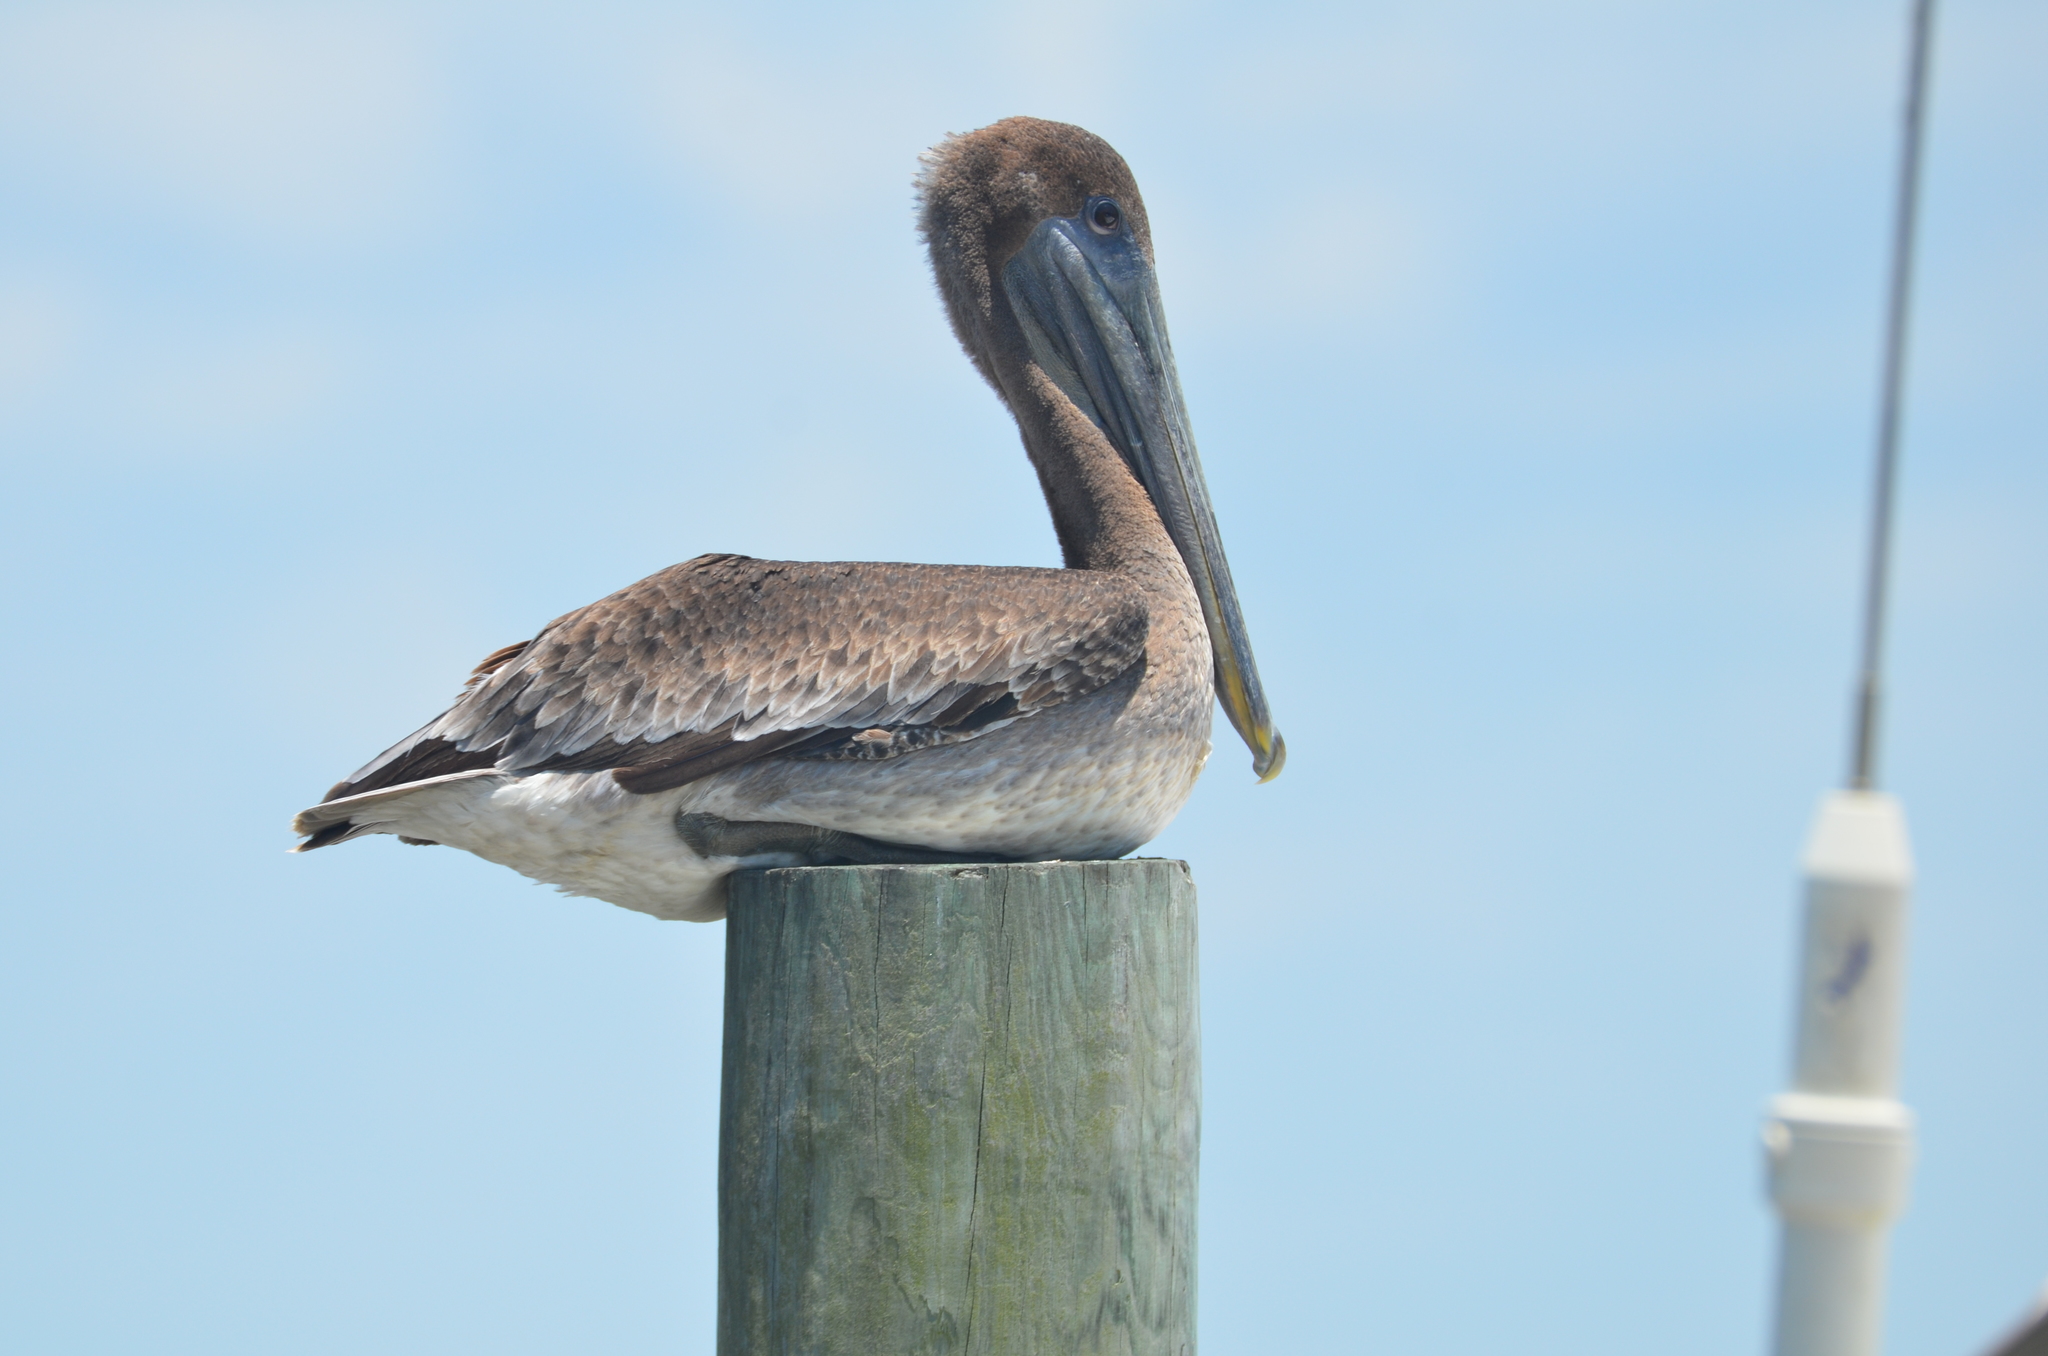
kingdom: Animalia
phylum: Chordata
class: Aves
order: Pelecaniformes
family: Pelecanidae
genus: Pelecanus
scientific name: Pelecanus occidentalis
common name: Brown pelican
